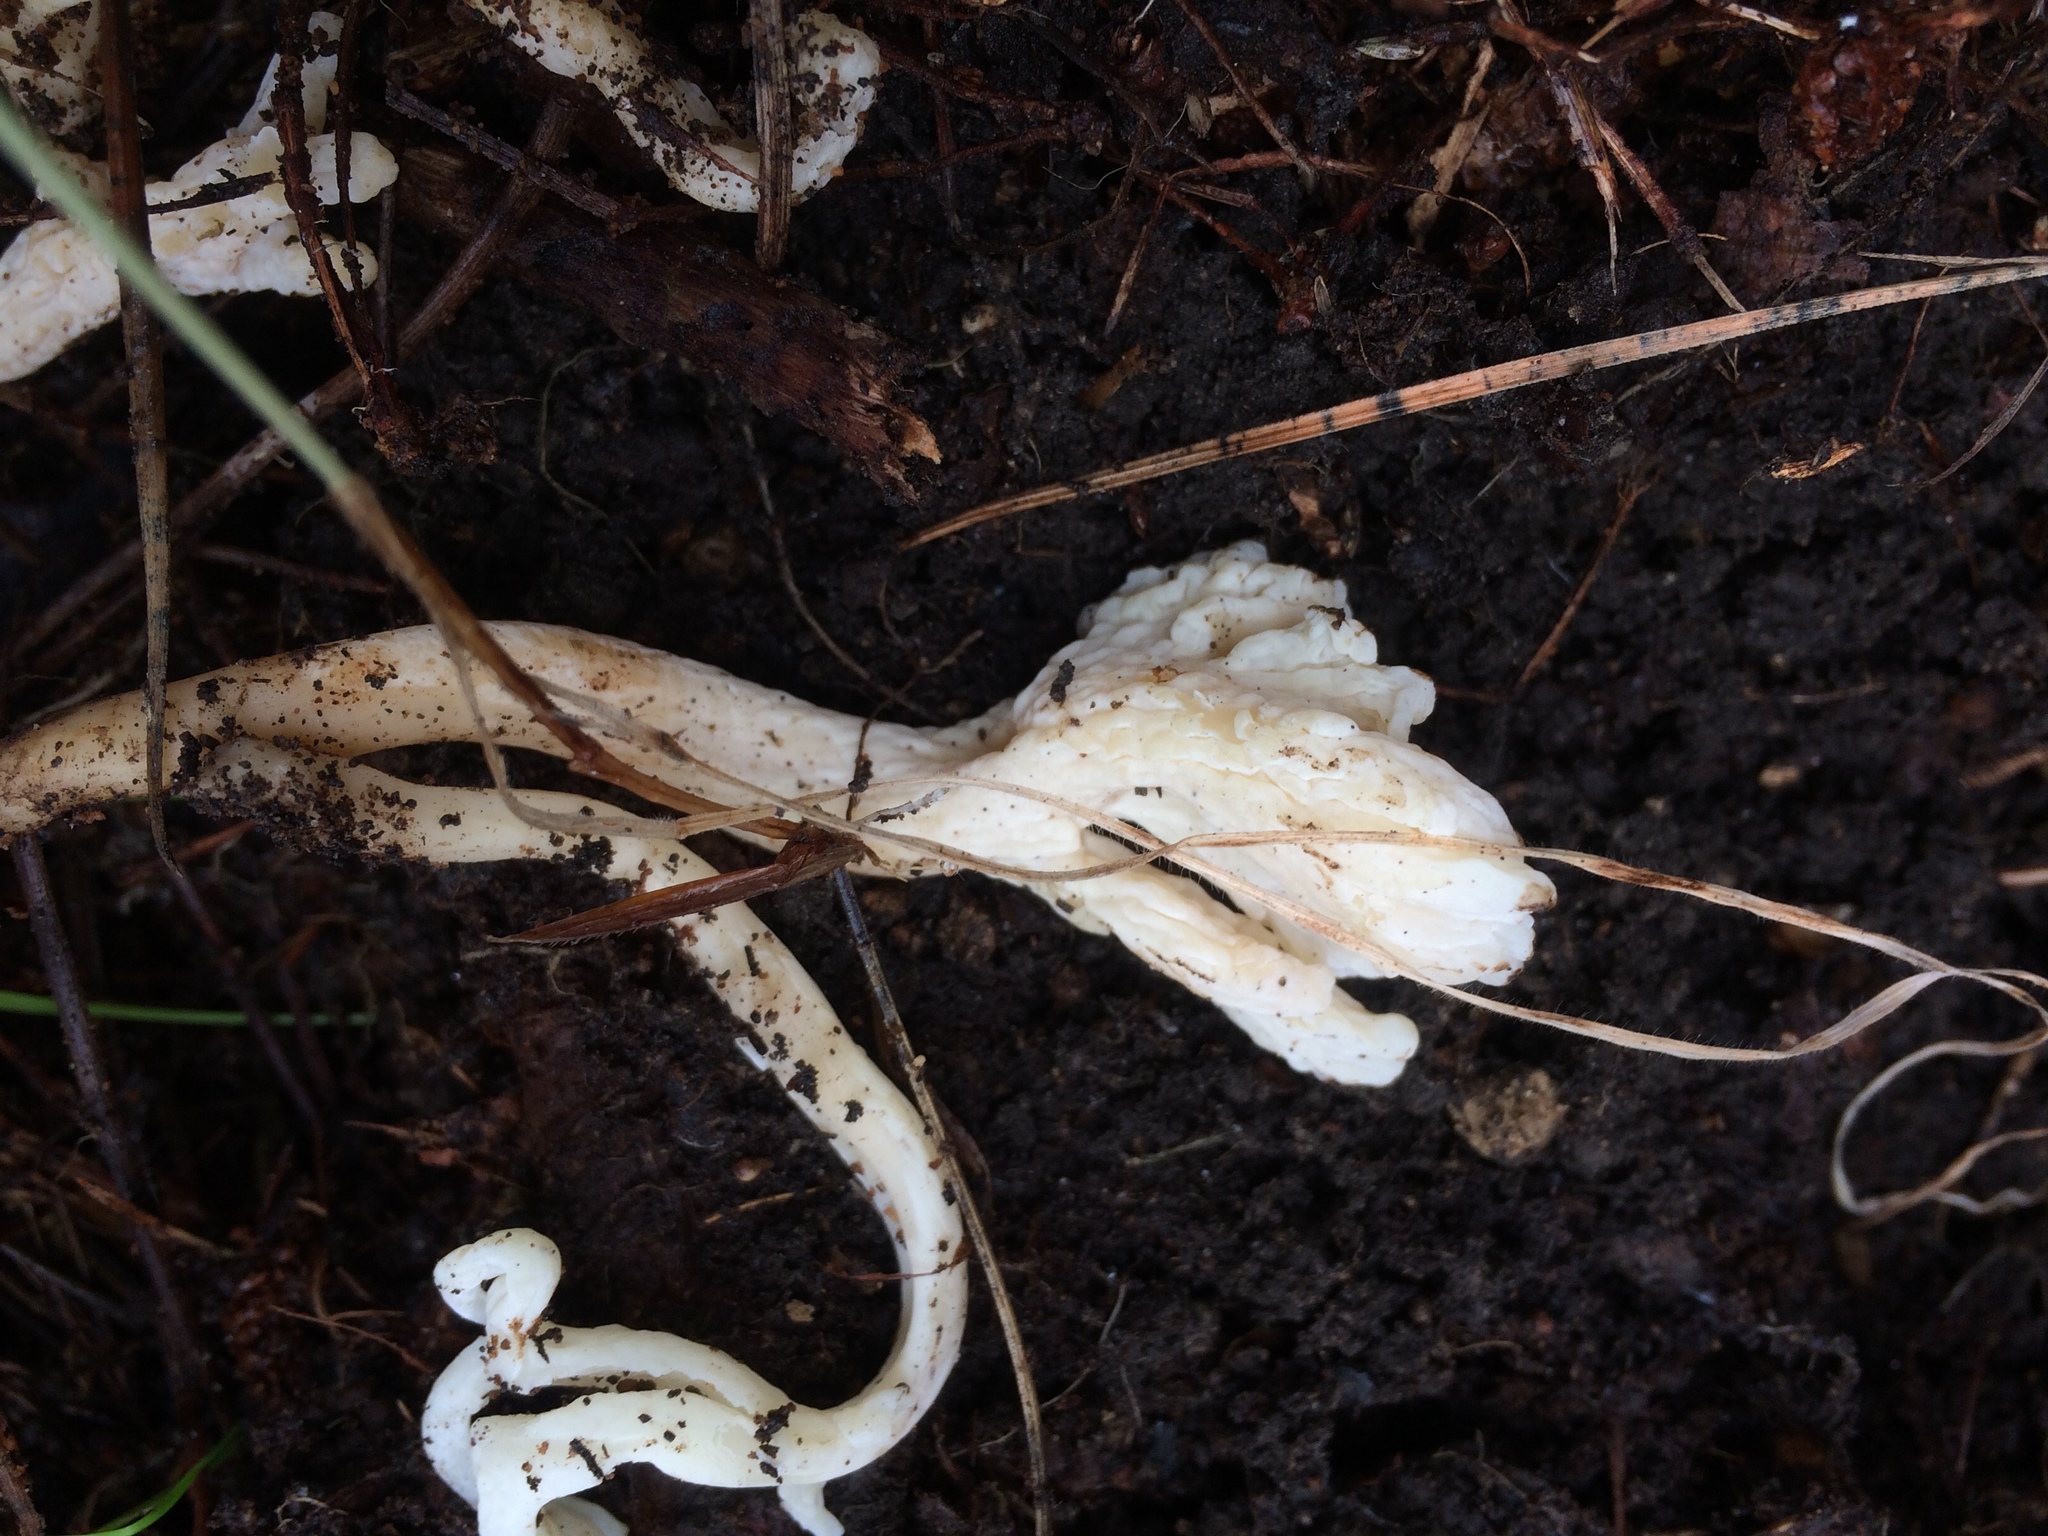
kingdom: Fungi
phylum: Basidiomycota
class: Agaricomycetes
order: Cantharellales
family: Hydnaceae
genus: Clavulina
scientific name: Clavulina rugosa
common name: Wrinkled club
